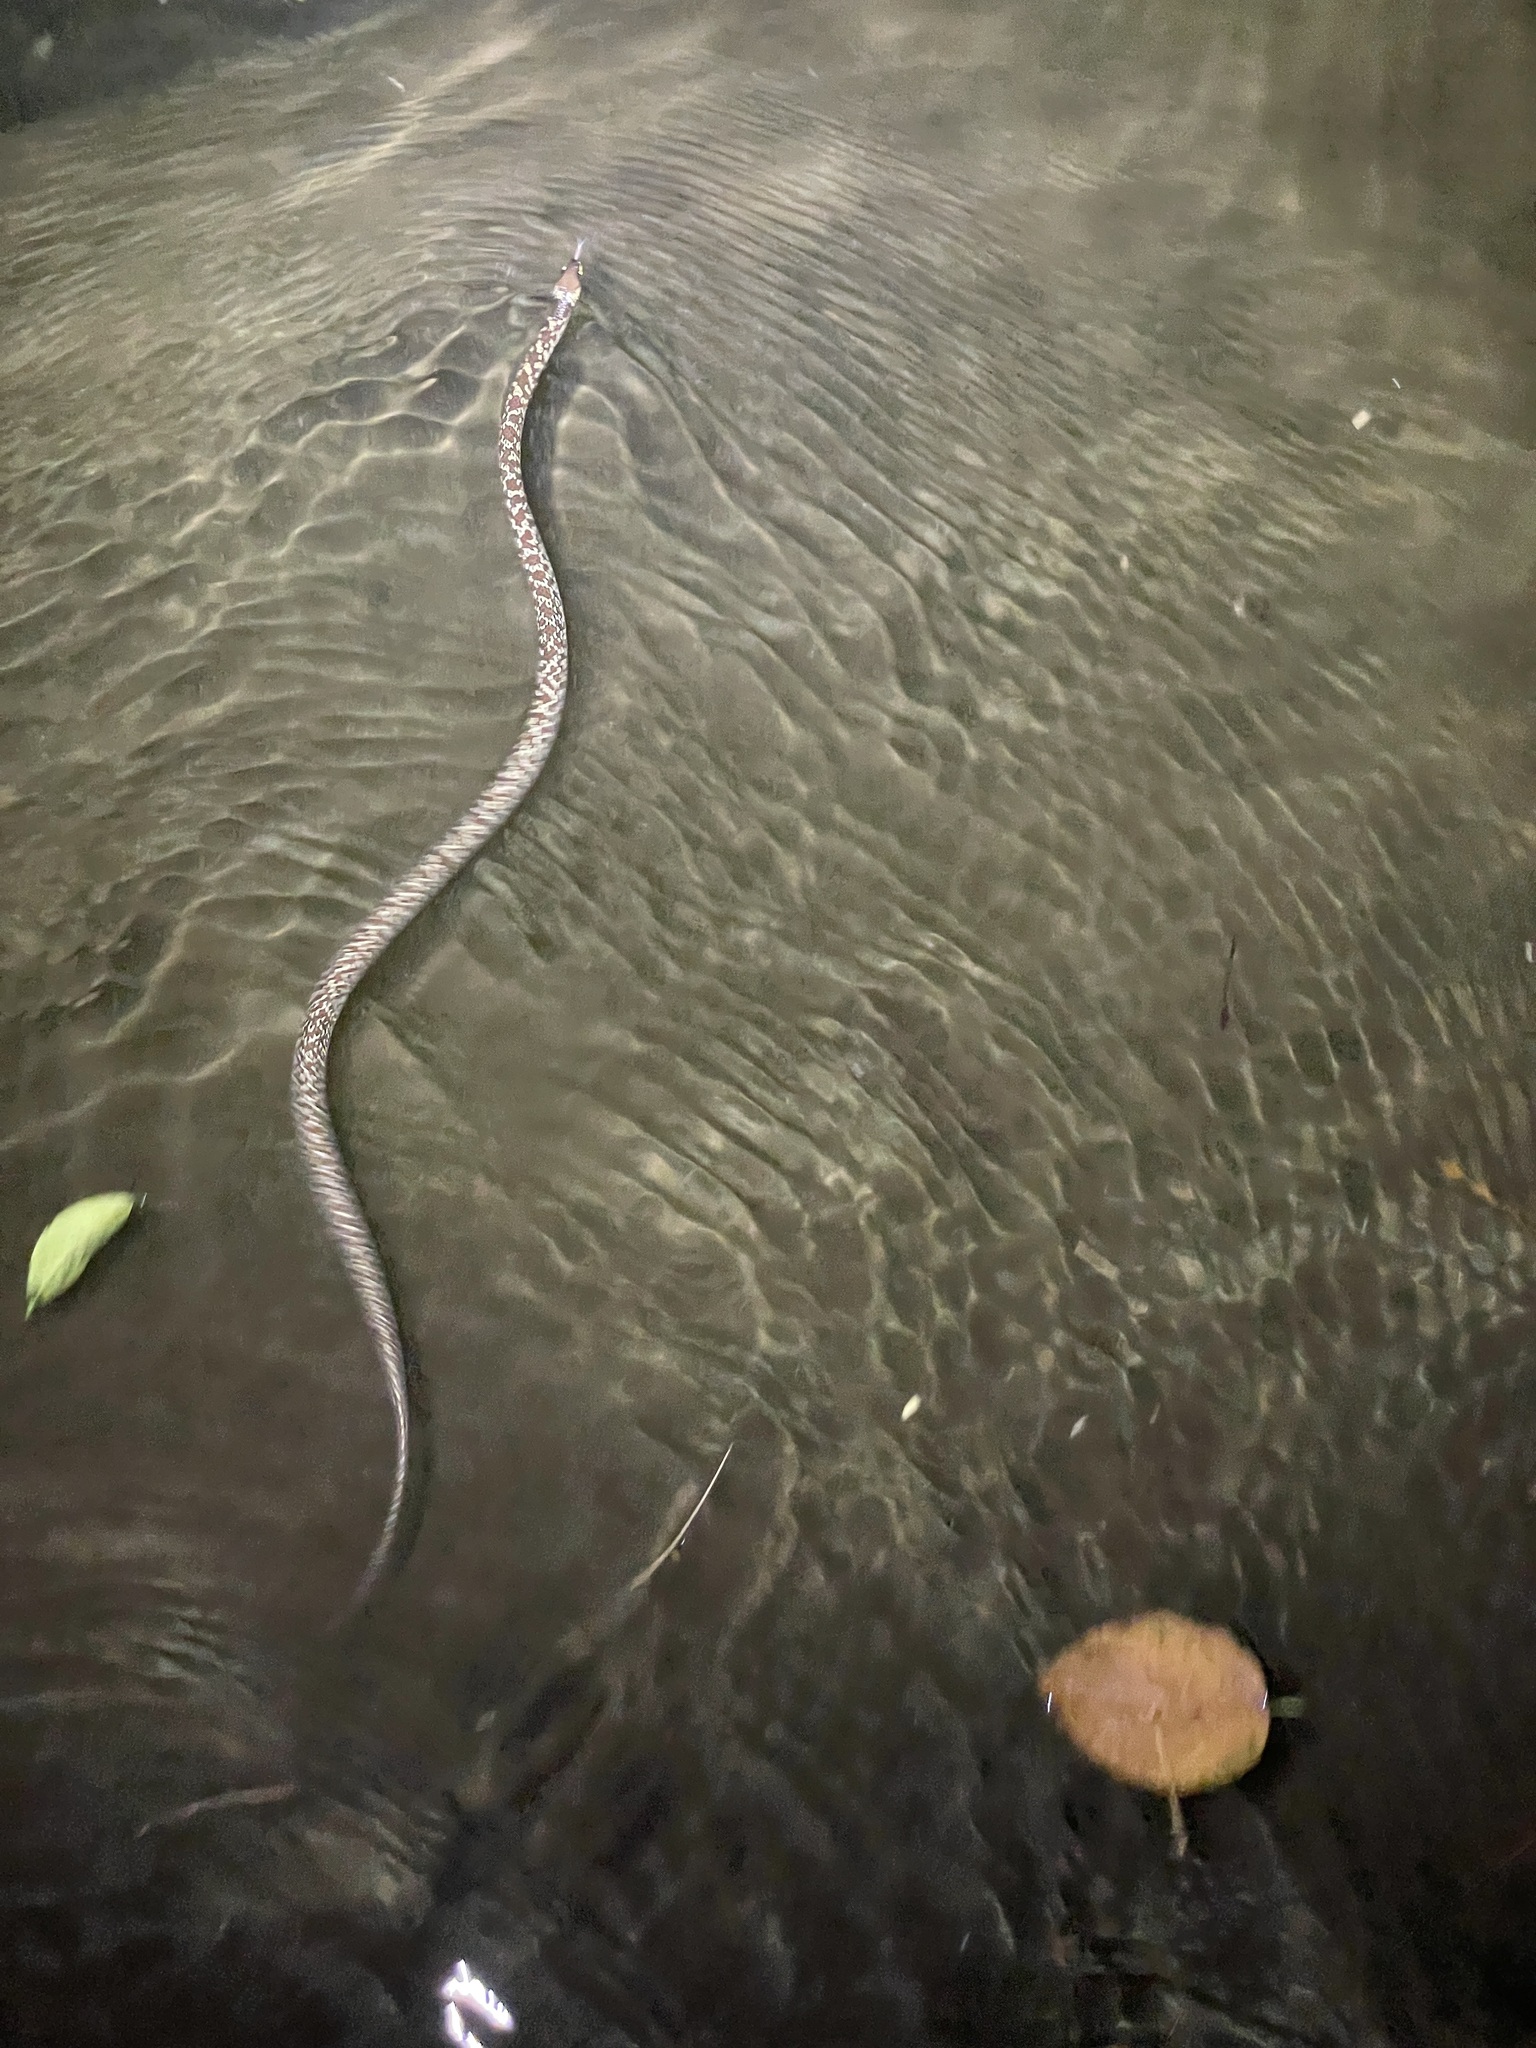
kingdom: Animalia
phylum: Chordata
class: Squamata
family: Colubridae
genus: Lycodon
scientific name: Lycodon capucinus
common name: Common wold snake/house snake
